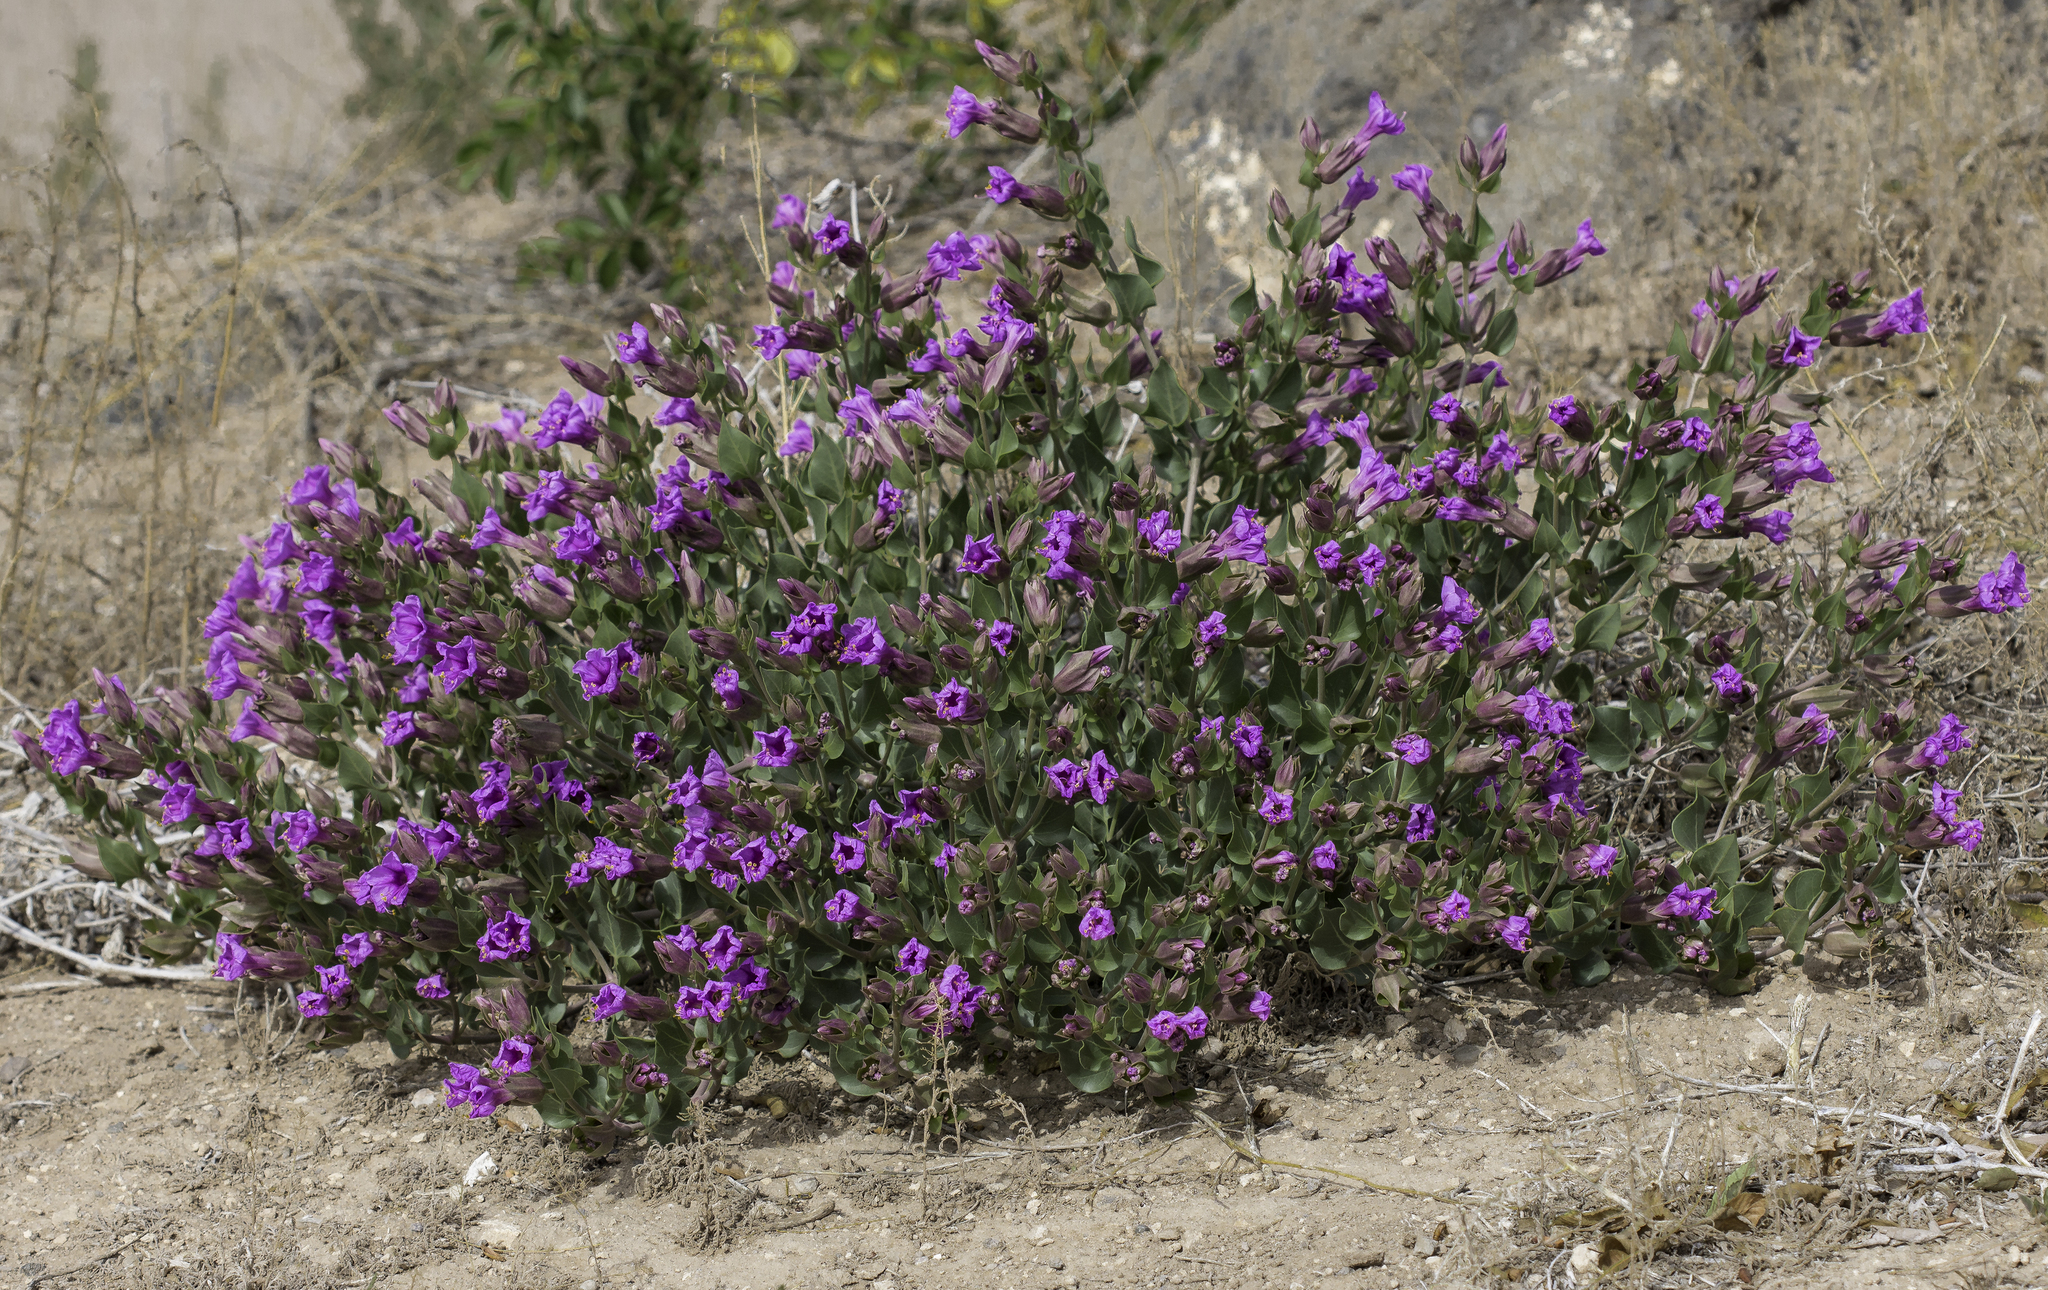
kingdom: Plantae
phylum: Tracheophyta
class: Magnoliopsida
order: Caryophyllales
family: Nyctaginaceae
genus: Mirabilis
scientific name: Mirabilis multiflora
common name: Froebel's four-o'clock
